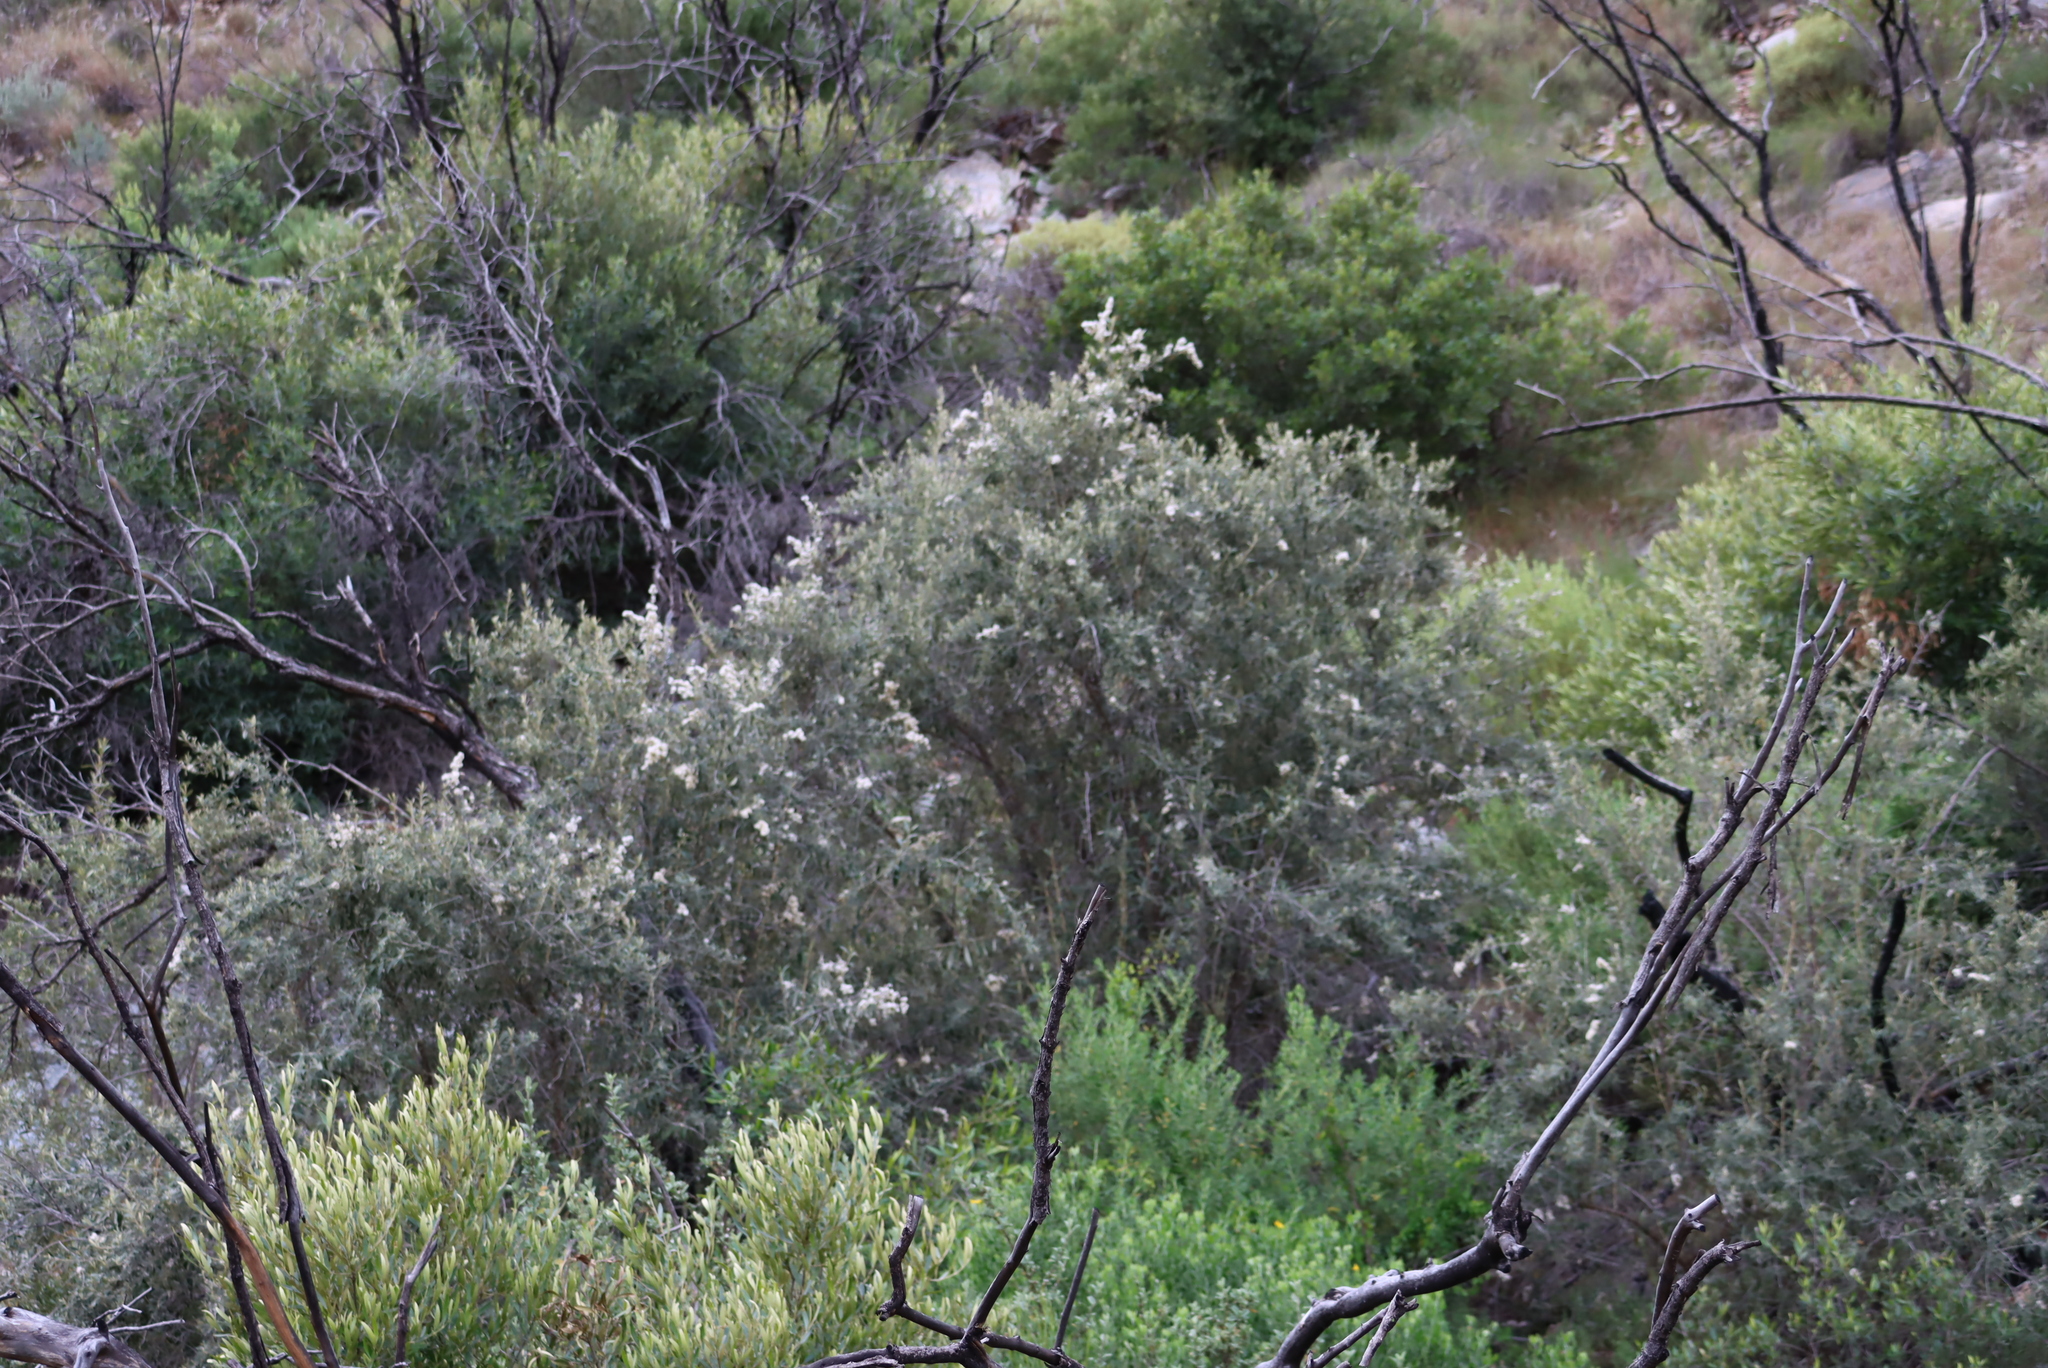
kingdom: Plantae
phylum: Tracheophyta
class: Magnoliopsida
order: Asterales
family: Asteraceae
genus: Tarchonanthus
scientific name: Tarchonanthus littoralis
